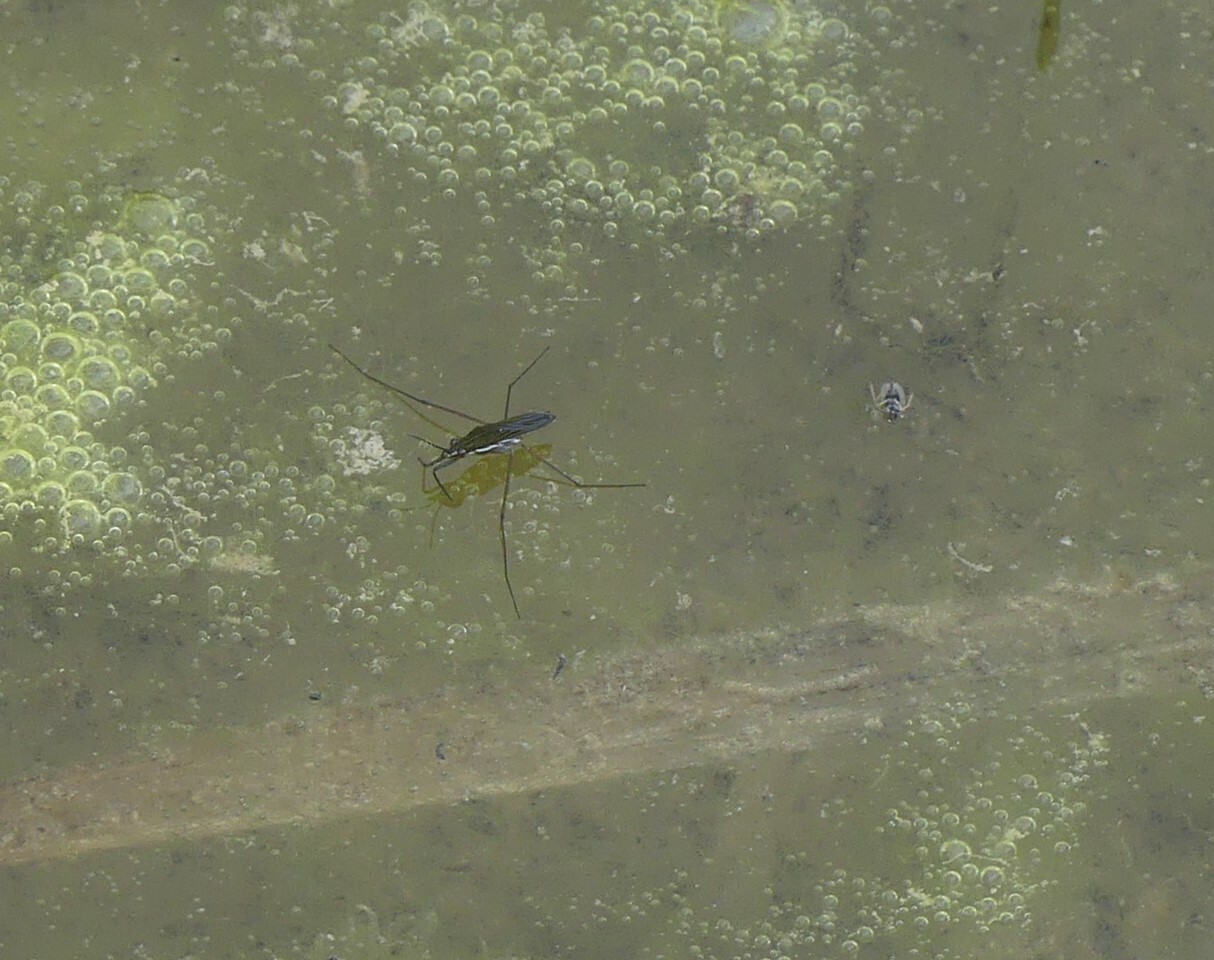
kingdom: Animalia
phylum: Arthropoda
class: Insecta
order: Hemiptera
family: Gerridae
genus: Gerris
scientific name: Gerris
